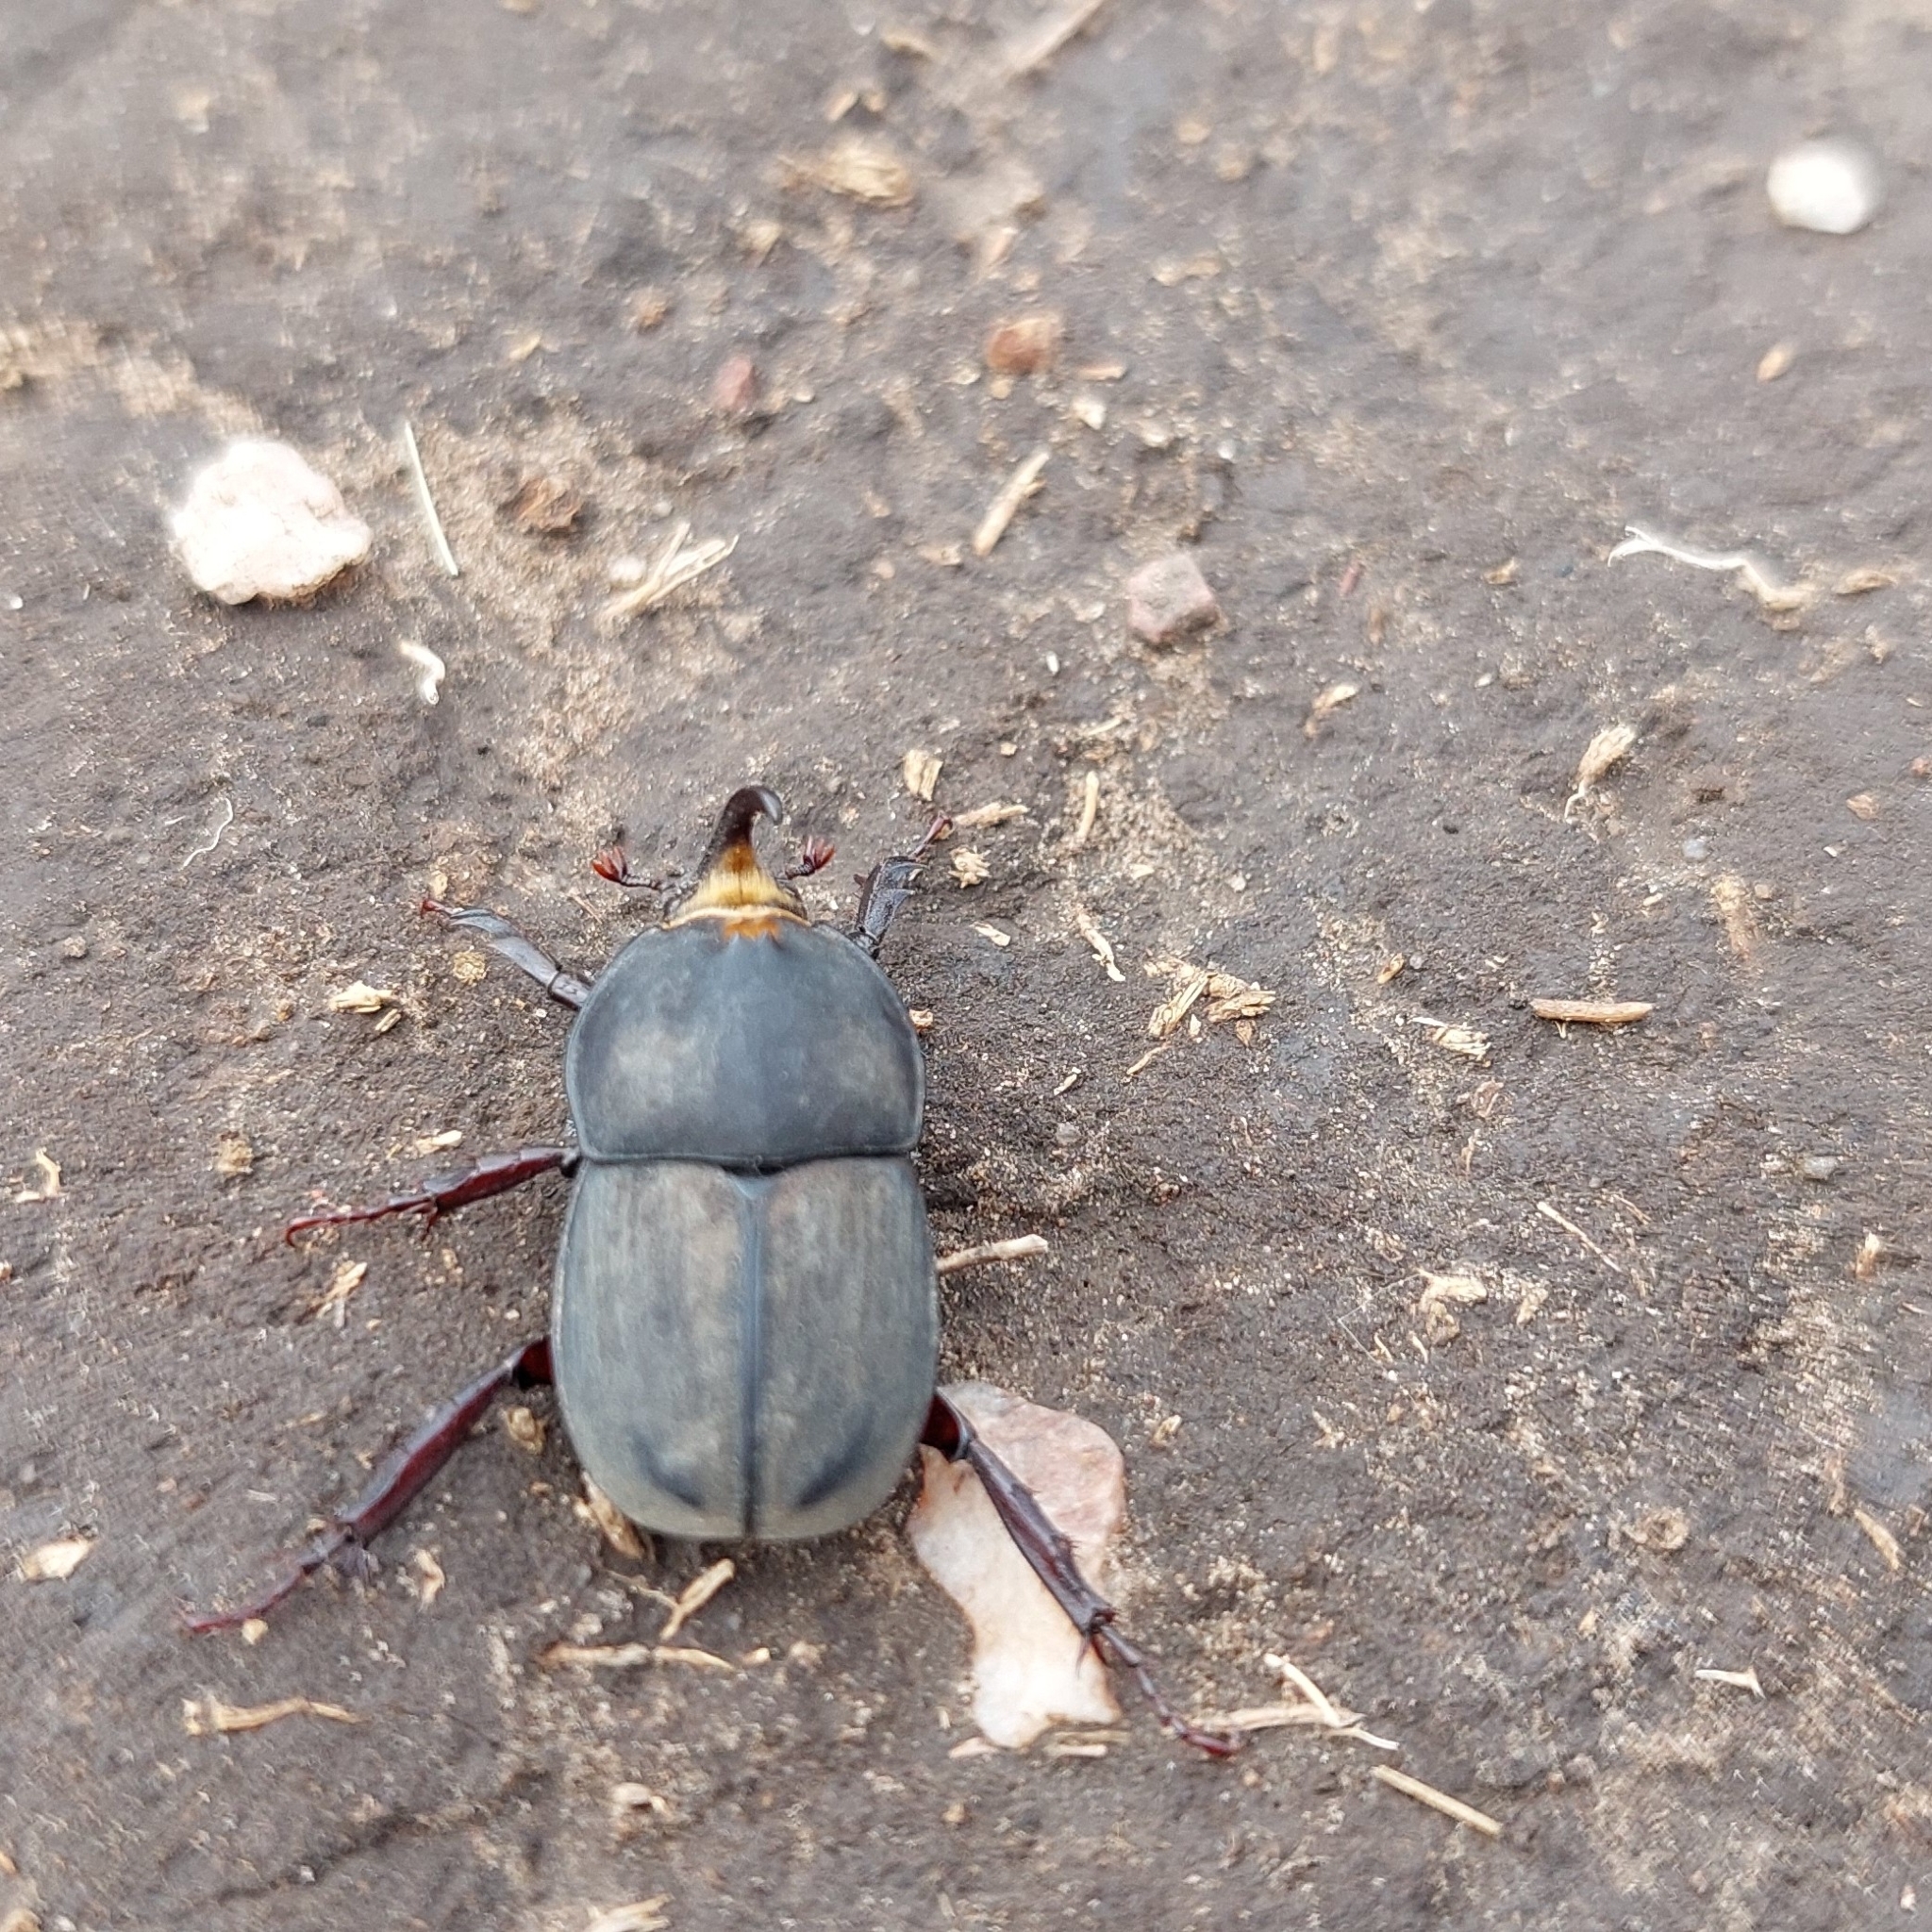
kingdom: Animalia
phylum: Arthropoda
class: Insecta
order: Coleoptera
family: Scarabaeidae
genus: Diloboderus
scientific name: Diloboderus abderus
